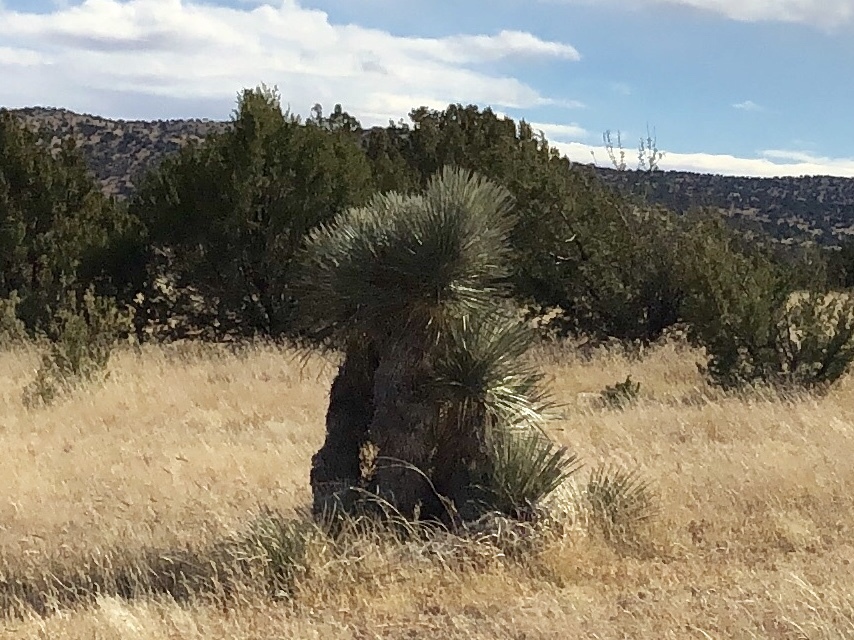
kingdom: Plantae
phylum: Tracheophyta
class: Liliopsida
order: Asparagales
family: Asparagaceae
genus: Yucca
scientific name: Yucca elata
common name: Palmella
